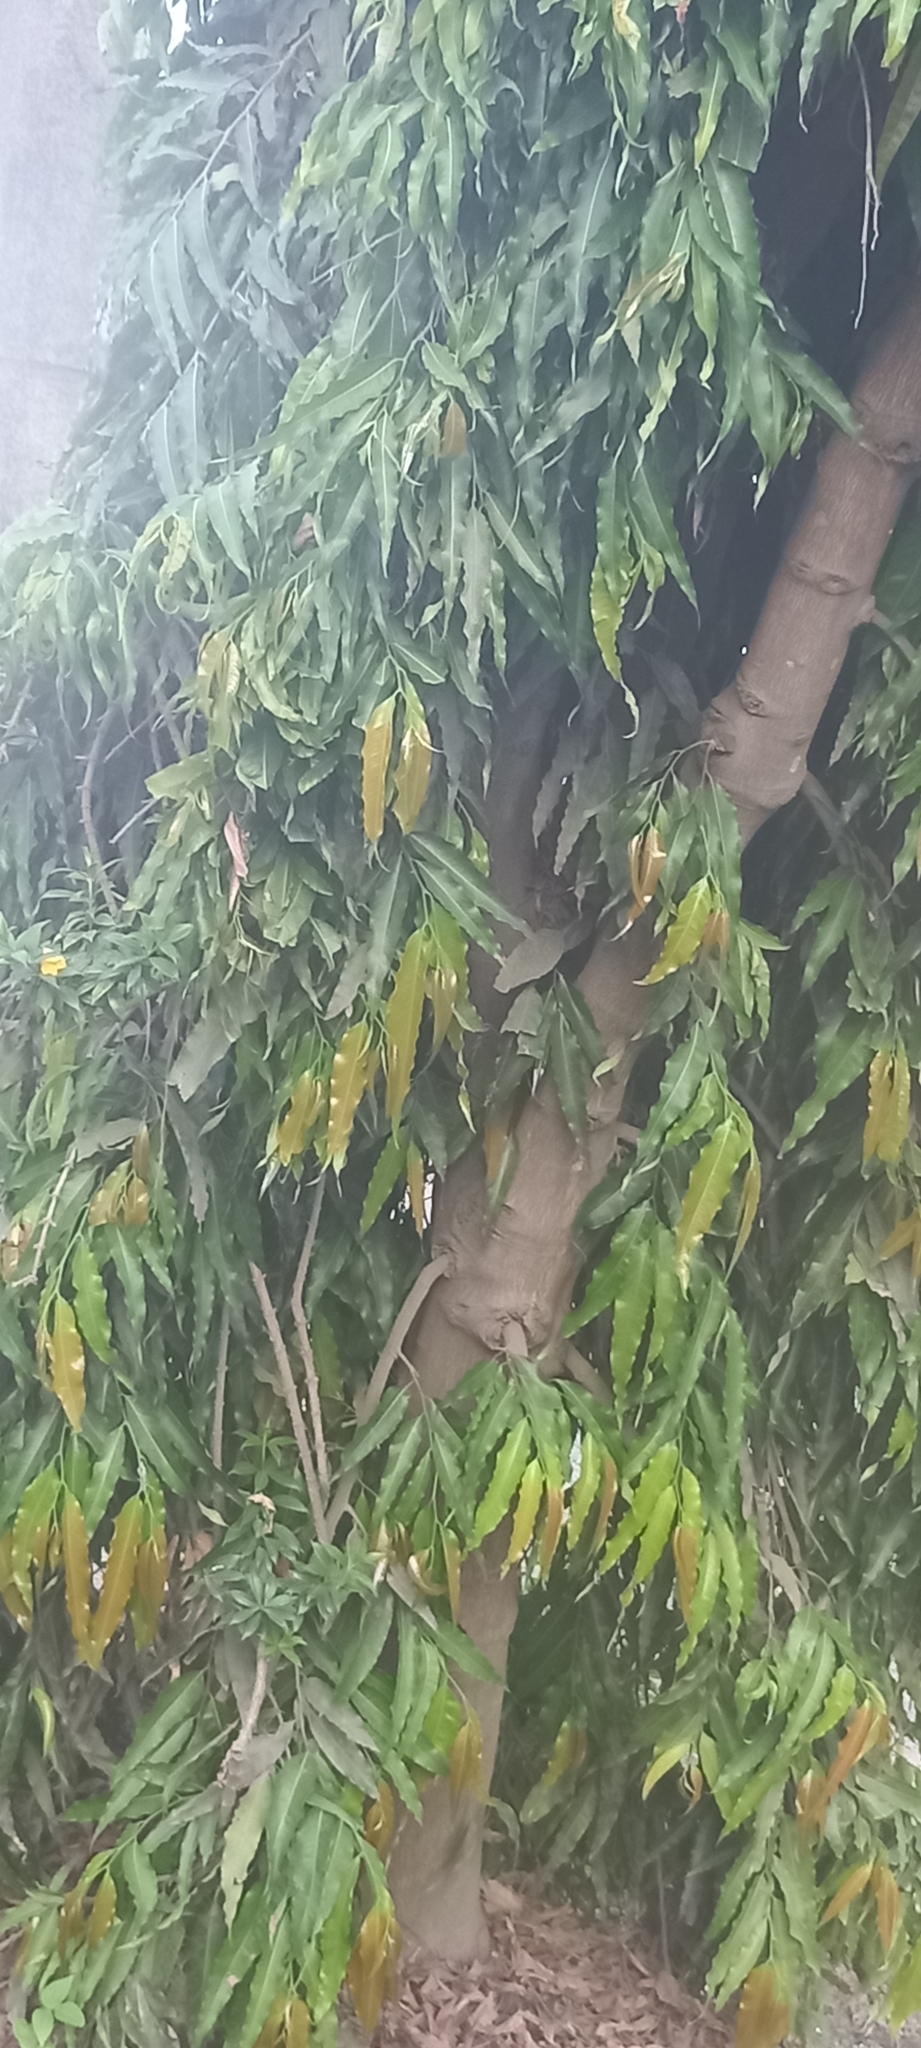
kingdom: Plantae
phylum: Tracheophyta
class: Magnoliopsida
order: Magnoliales
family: Annonaceae
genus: Polyalthia
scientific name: Polyalthia longifolia
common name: Cemetery-tree
